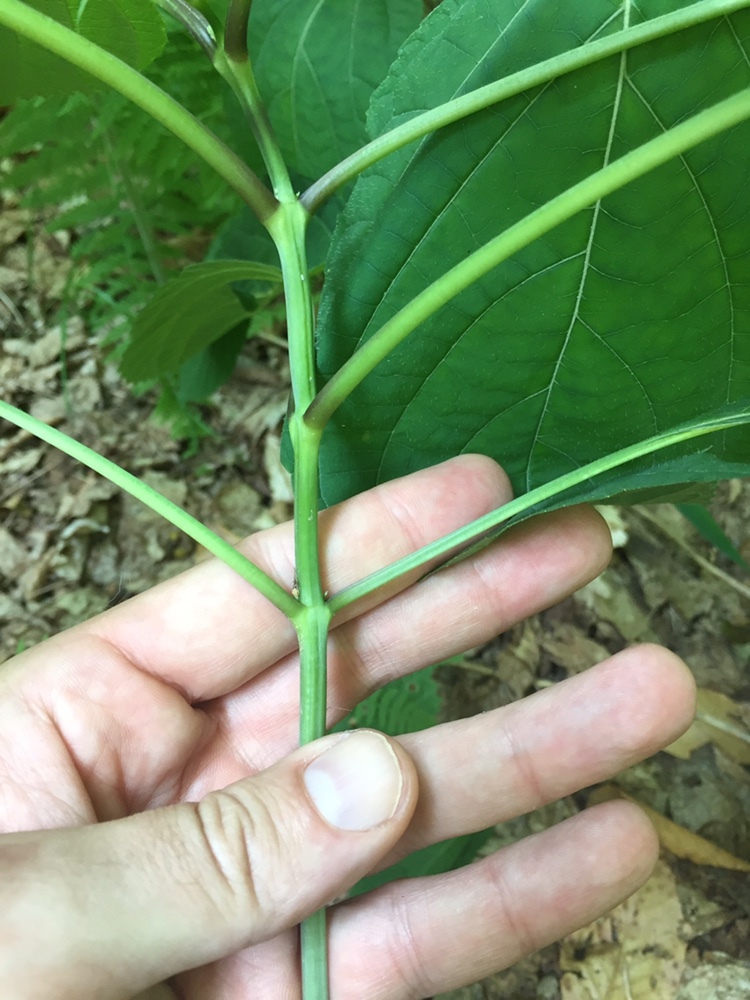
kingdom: Plantae
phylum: Tracheophyta
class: Magnoliopsida
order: Lamiales
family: Lamiaceae
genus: Collinsonia
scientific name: Collinsonia canadensis
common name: Northern horsebalm
